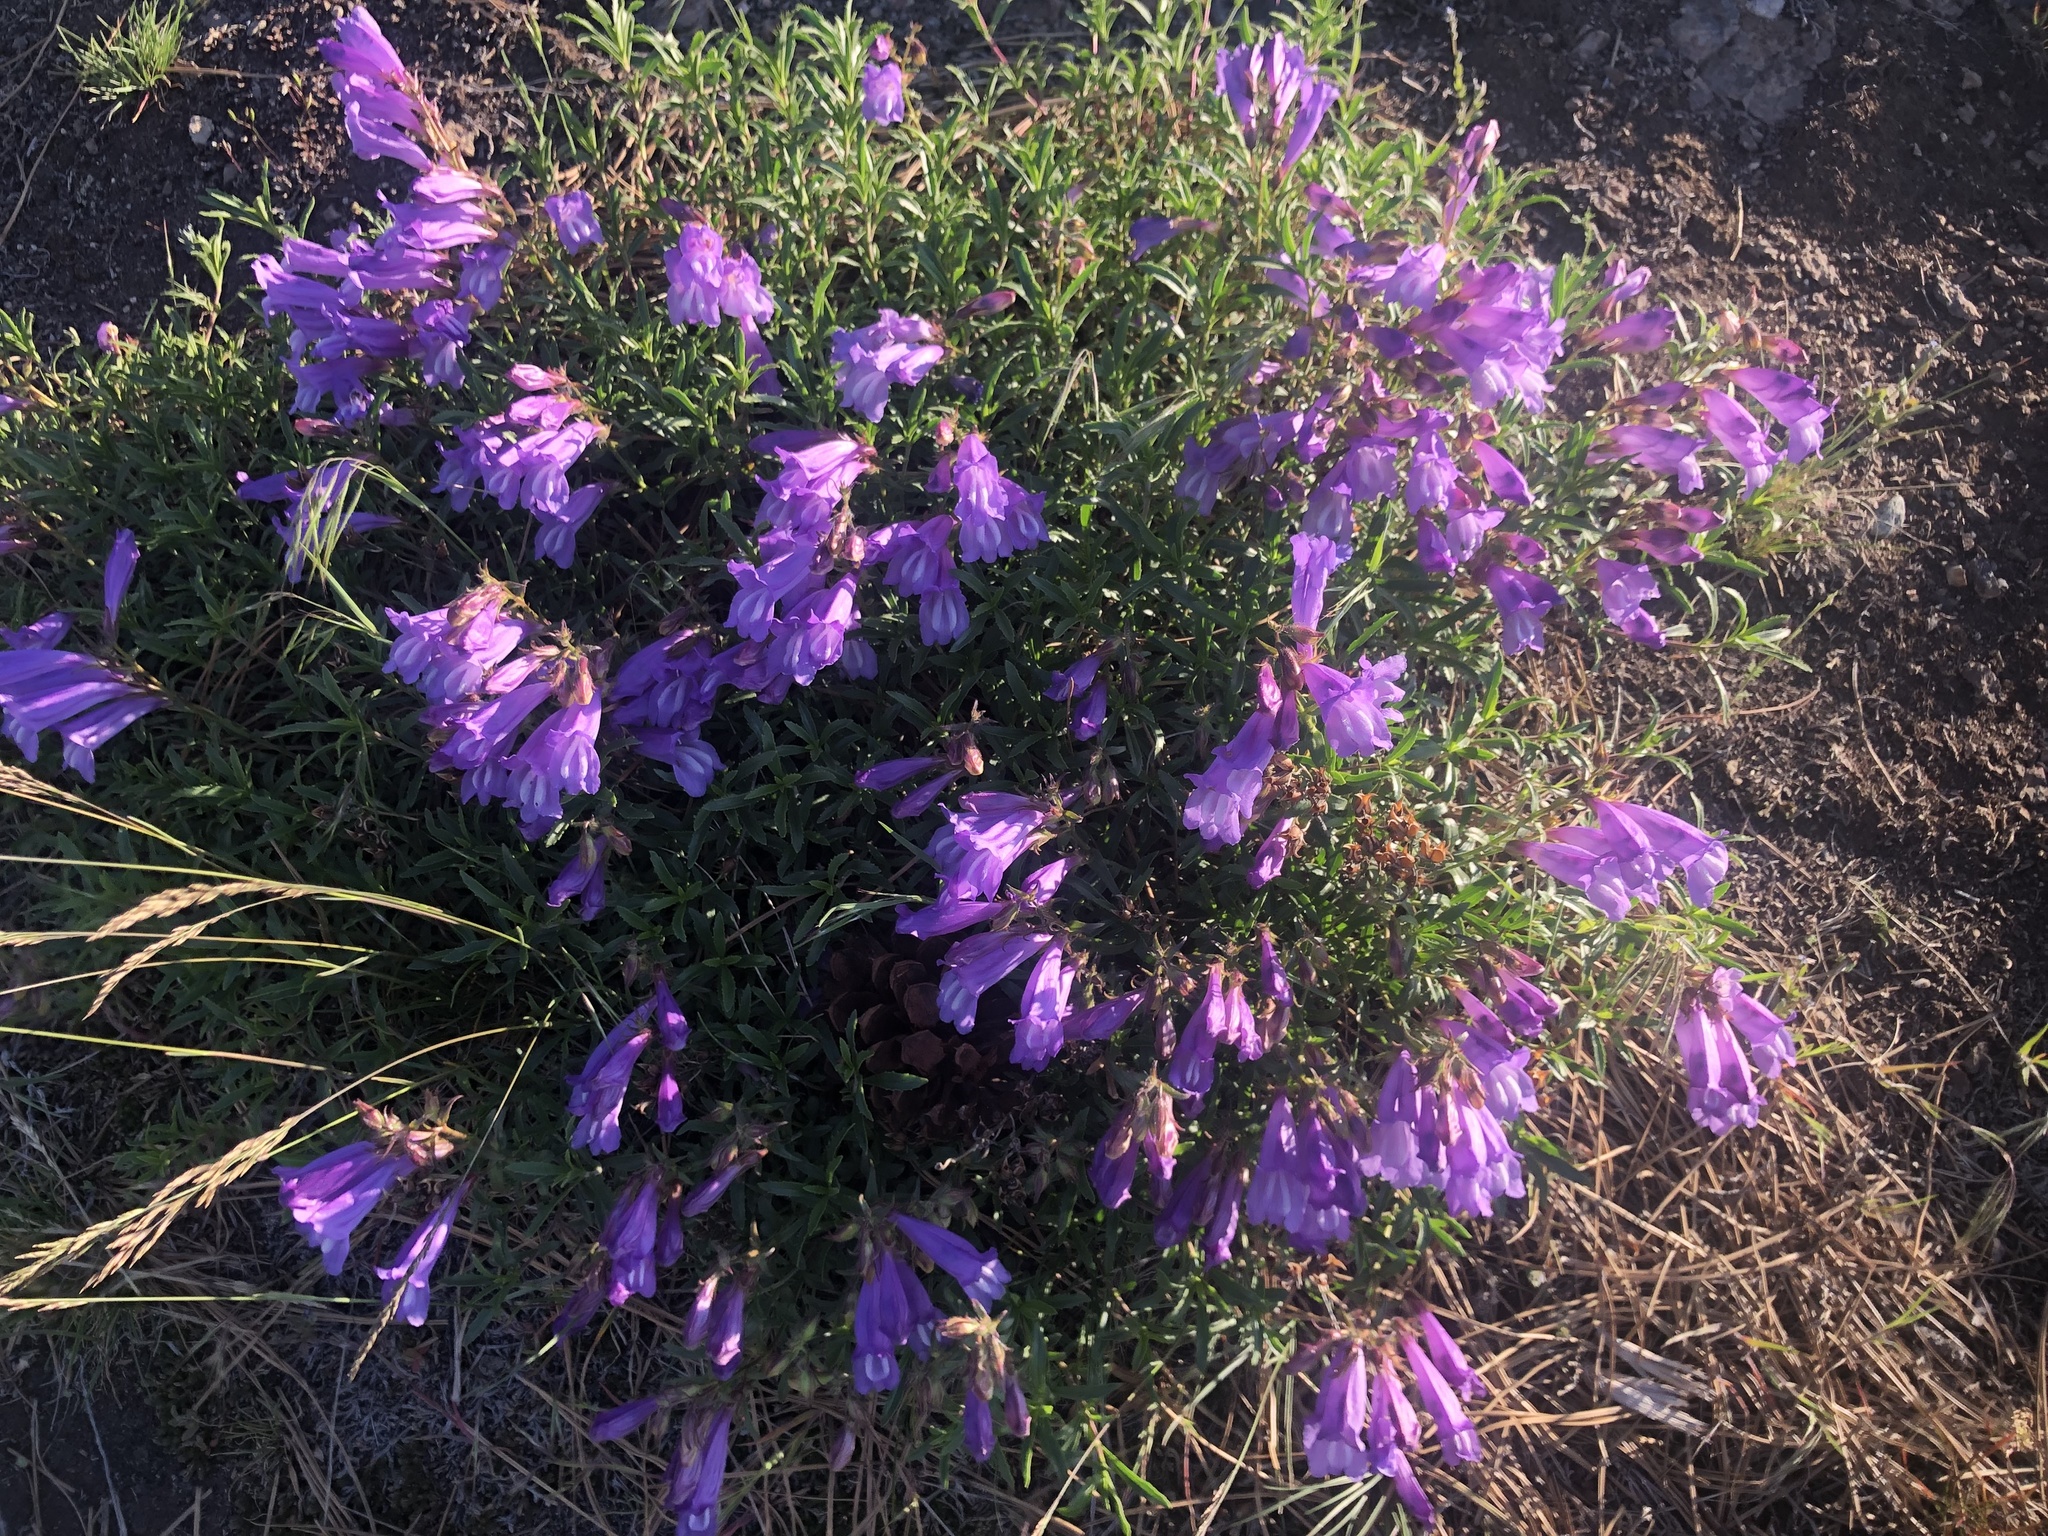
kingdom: Plantae
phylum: Tracheophyta
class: Magnoliopsida
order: Lamiales
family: Plantaginaceae
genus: Penstemon
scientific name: Penstemon fruticosus
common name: Bush penstemon
